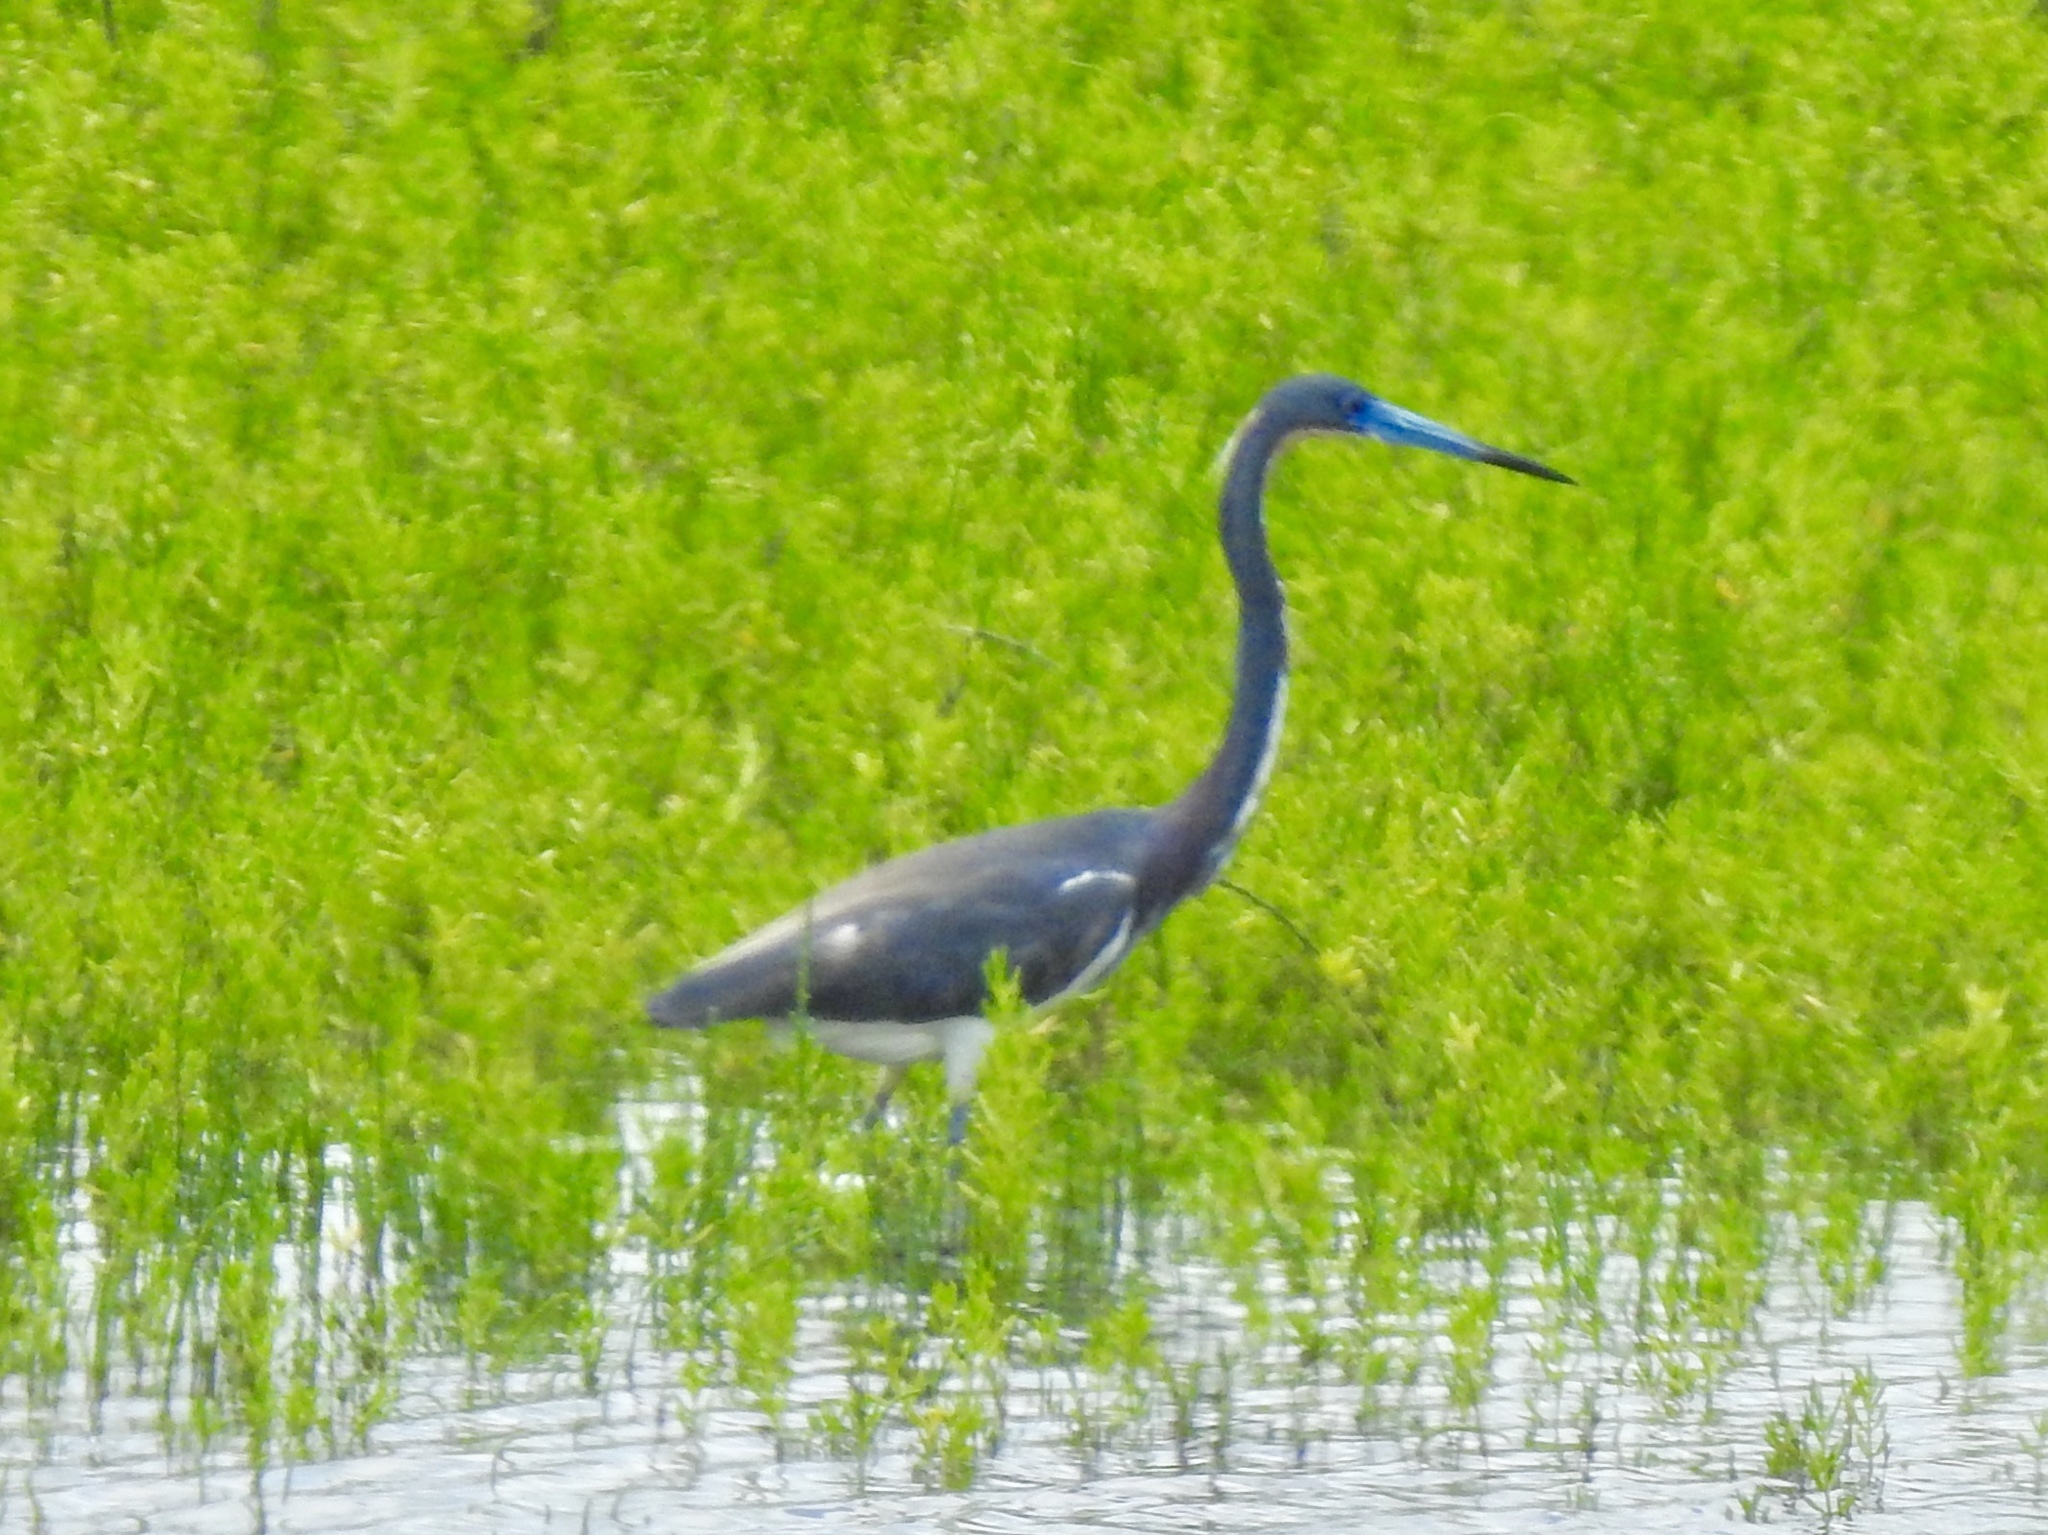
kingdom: Animalia
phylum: Chordata
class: Aves
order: Pelecaniformes
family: Ardeidae
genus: Egretta
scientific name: Egretta tricolor
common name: Tricolored heron
